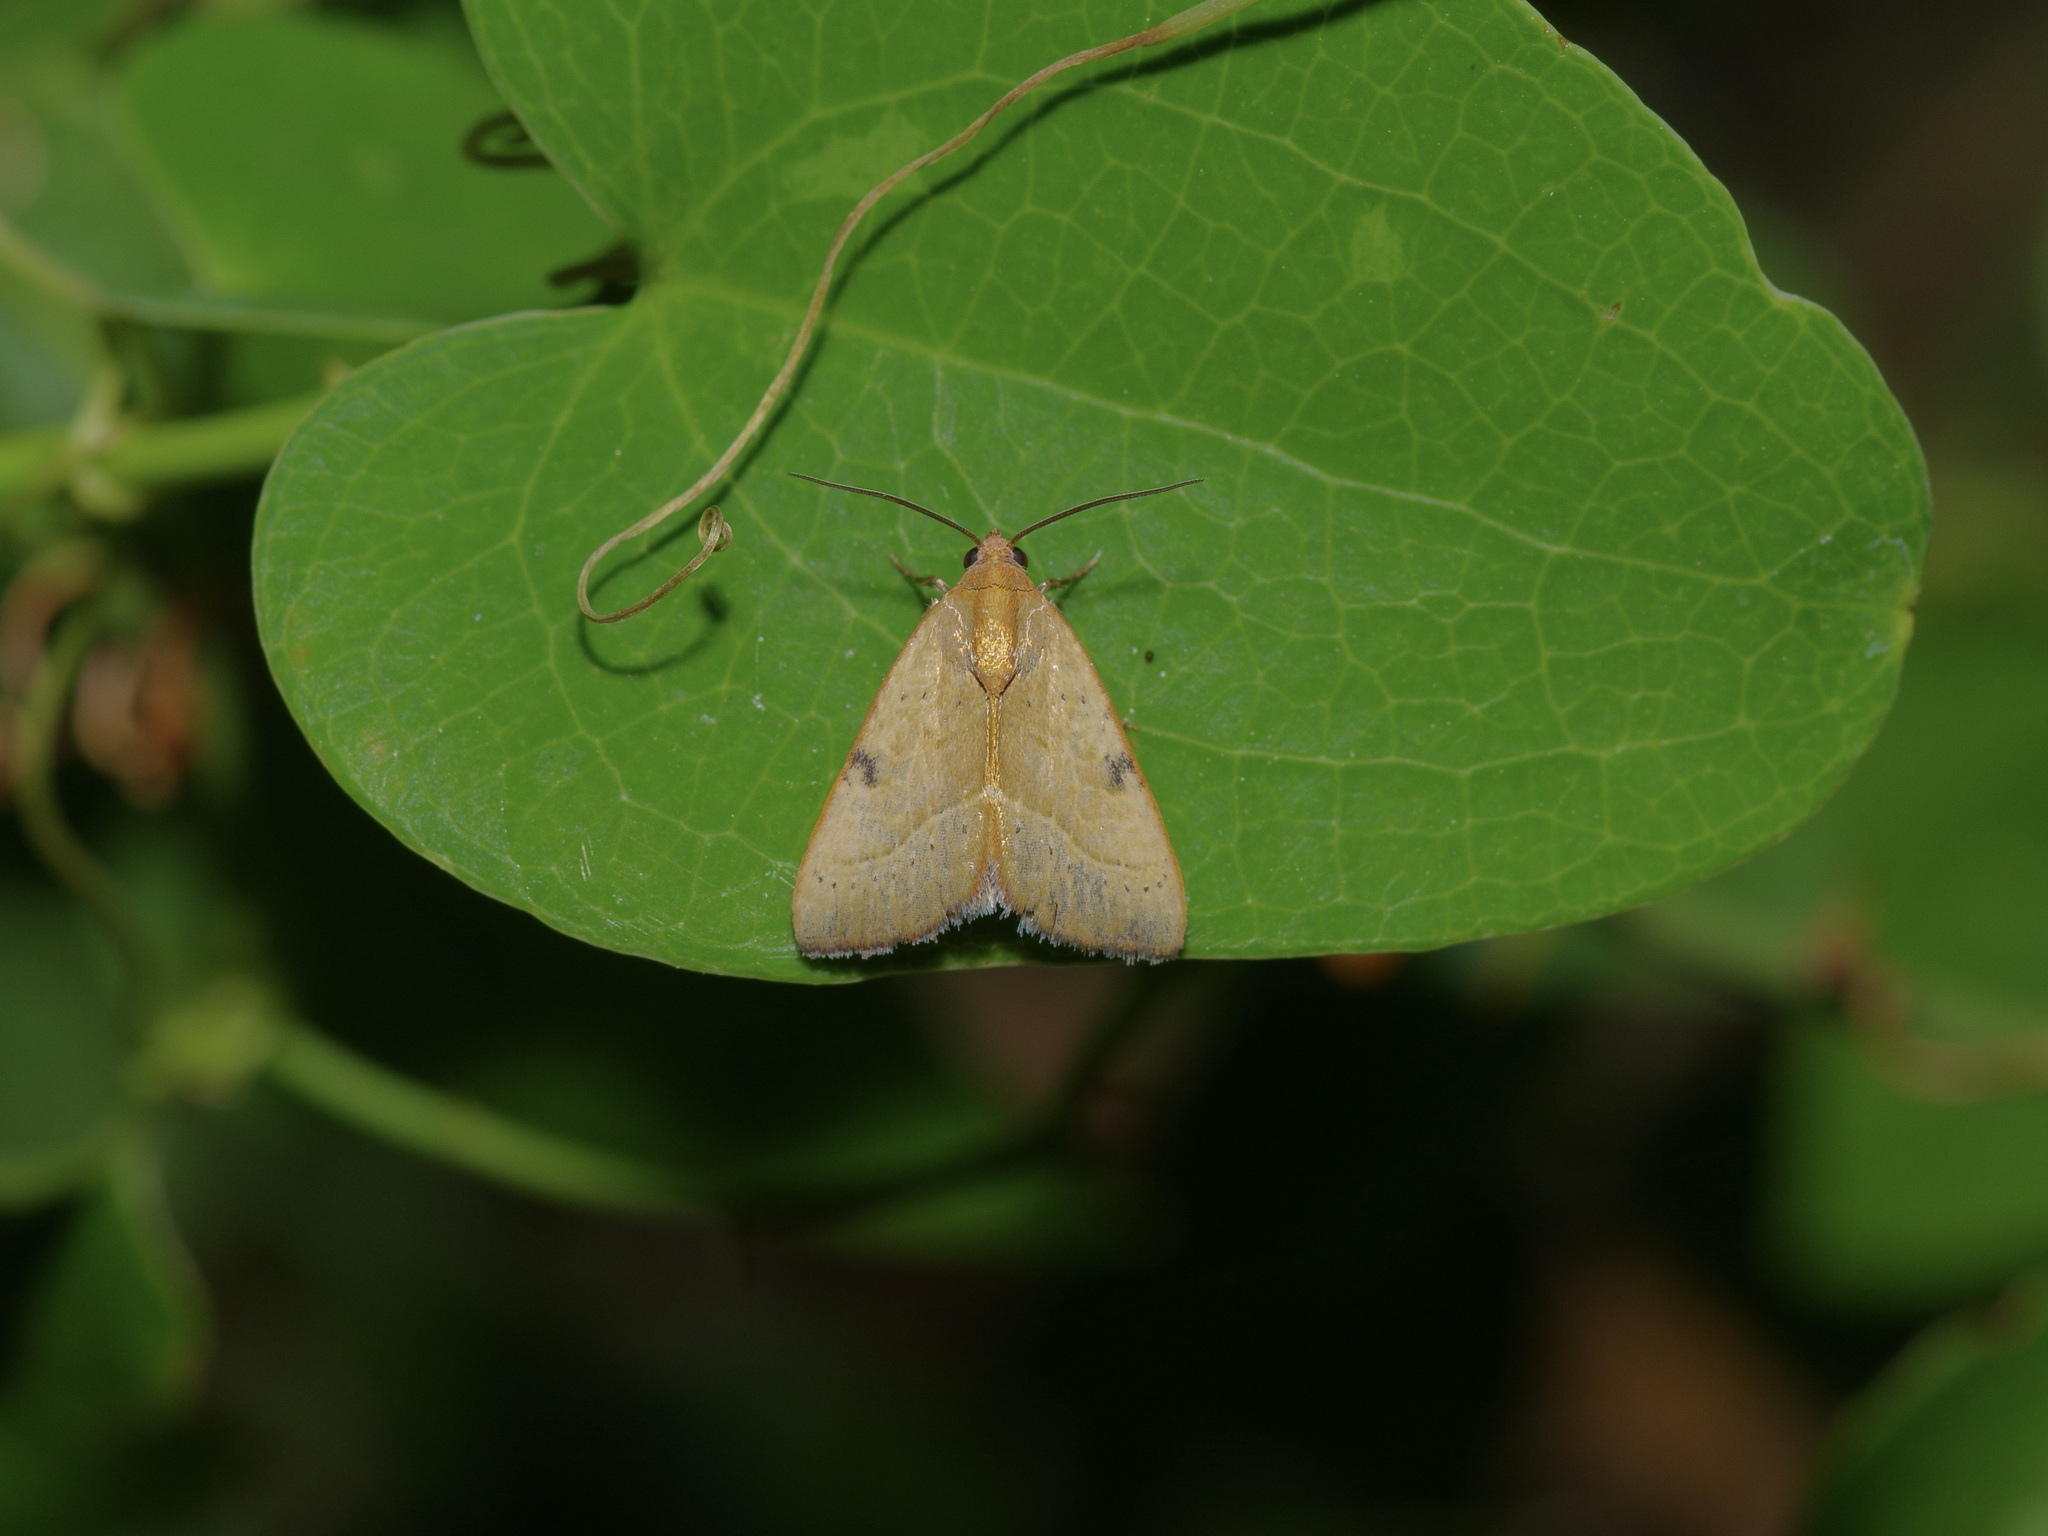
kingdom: Animalia
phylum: Arthropoda
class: Insecta
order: Lepidoptera
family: Noctuidae
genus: Galgula
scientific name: Galgula partita
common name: Wedgeling
